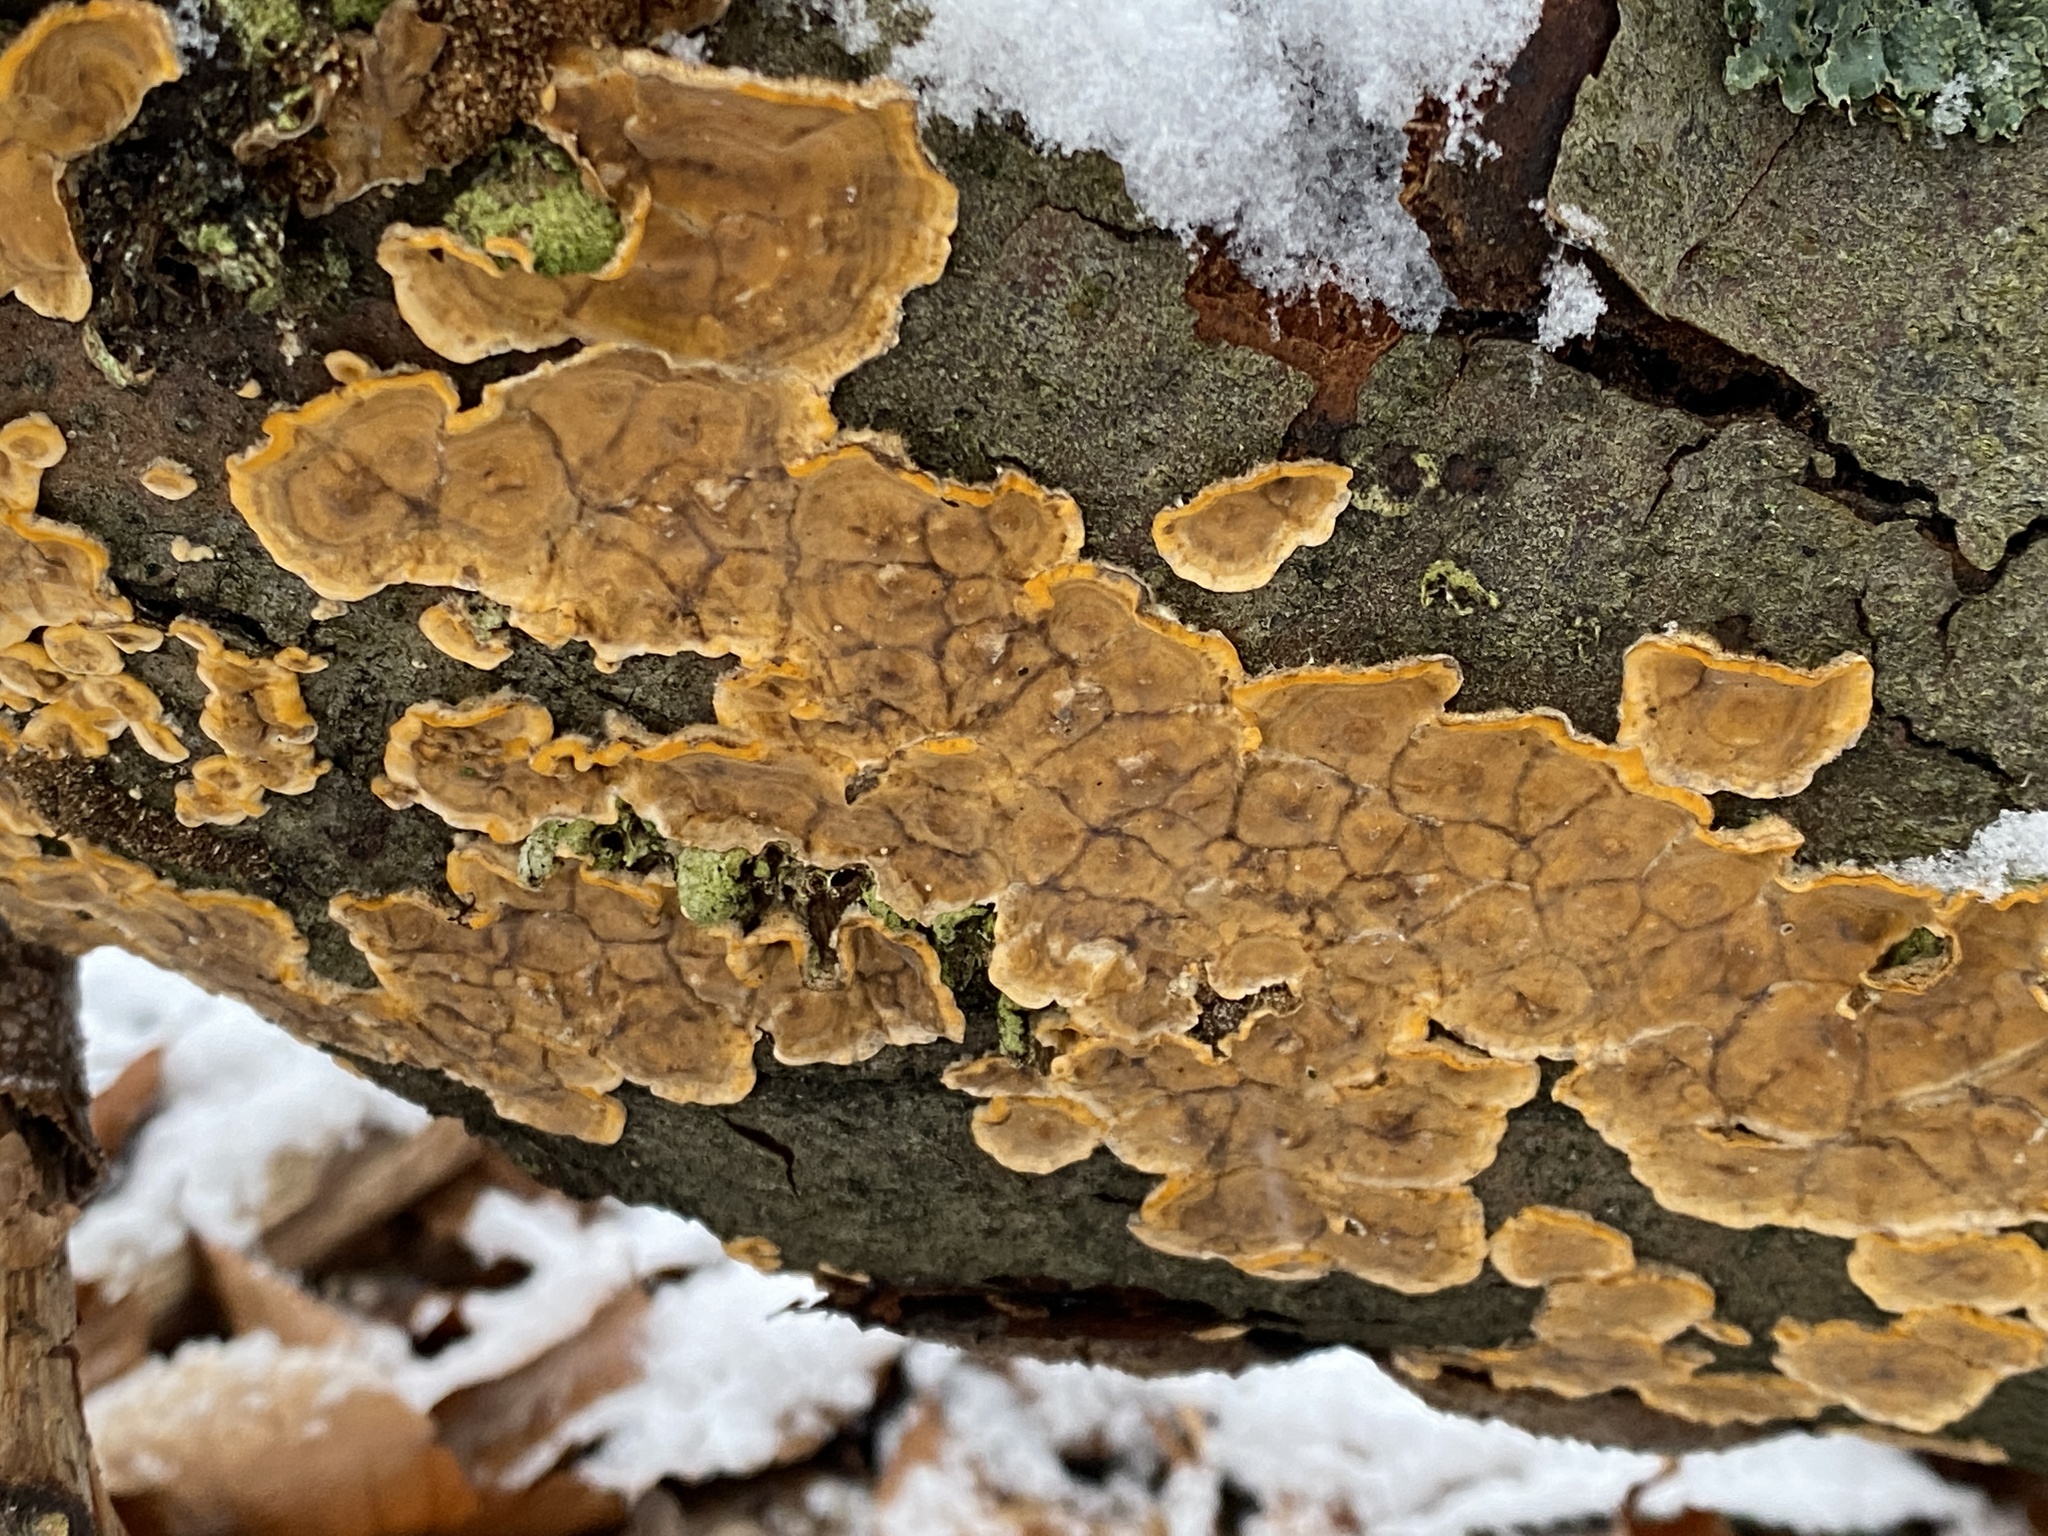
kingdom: Fungi
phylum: Basidiomycota
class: Agaricomycetes
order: Russulales
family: Stereaceae
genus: Stereum
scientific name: Stereum hirsutum
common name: Hairy curtain crust
